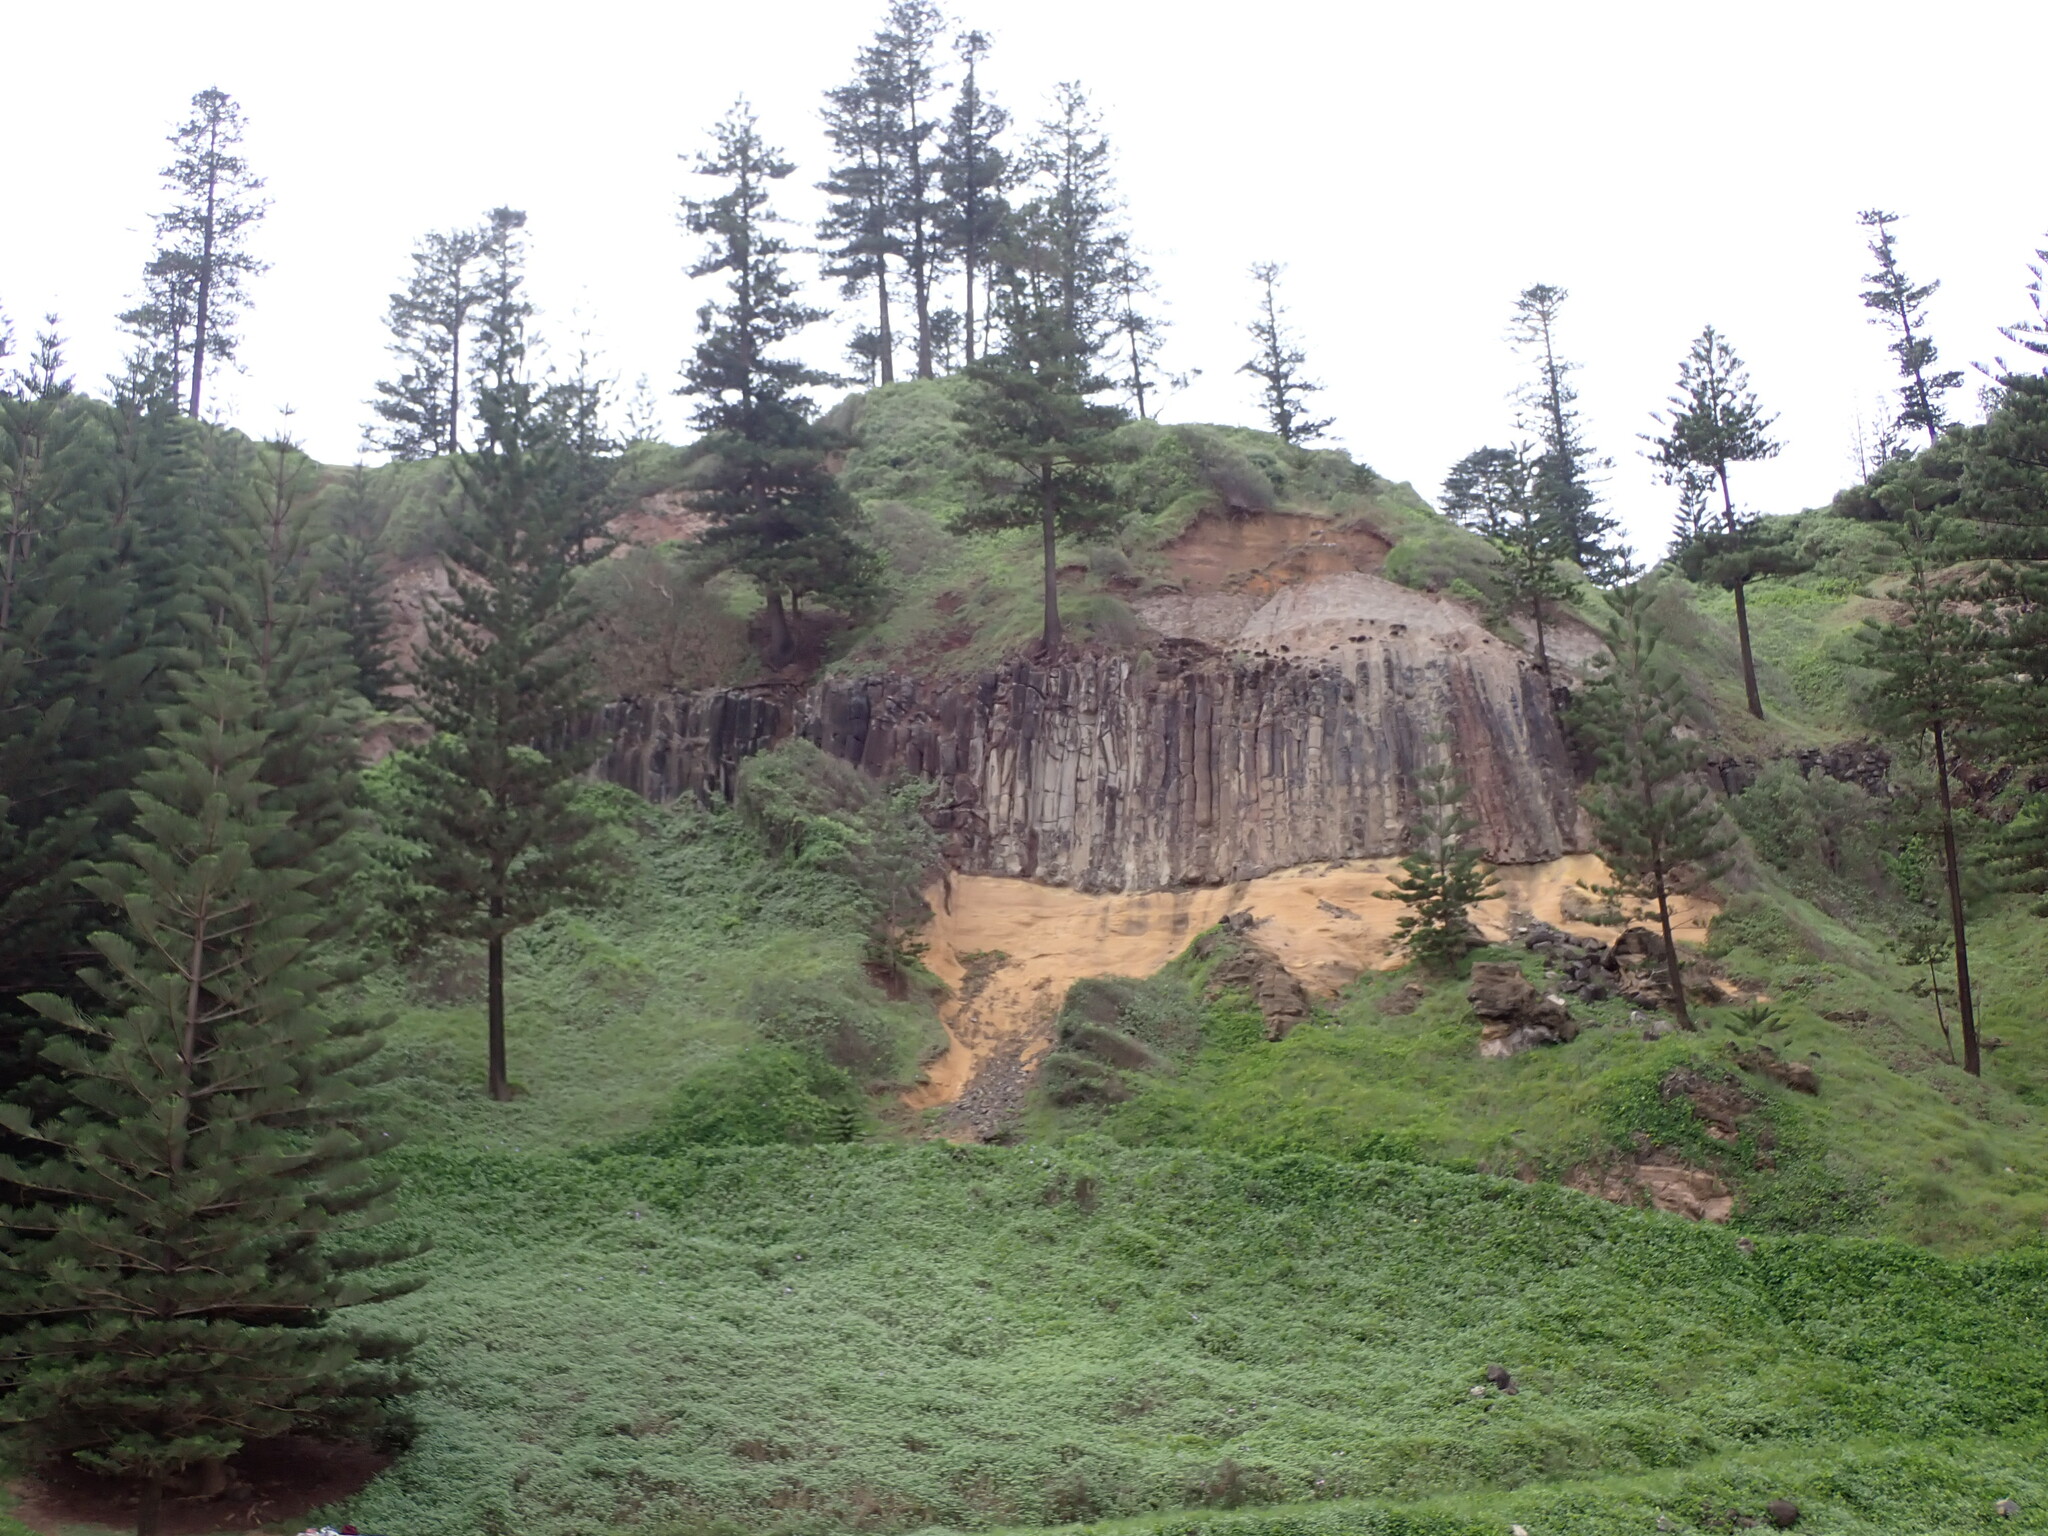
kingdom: Plantae
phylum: Tracheophyta
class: Pinopsida
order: Pinales
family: Araucariaceae
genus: Araucaria
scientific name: Araucaria heterophylla
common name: Norfolk island pine
